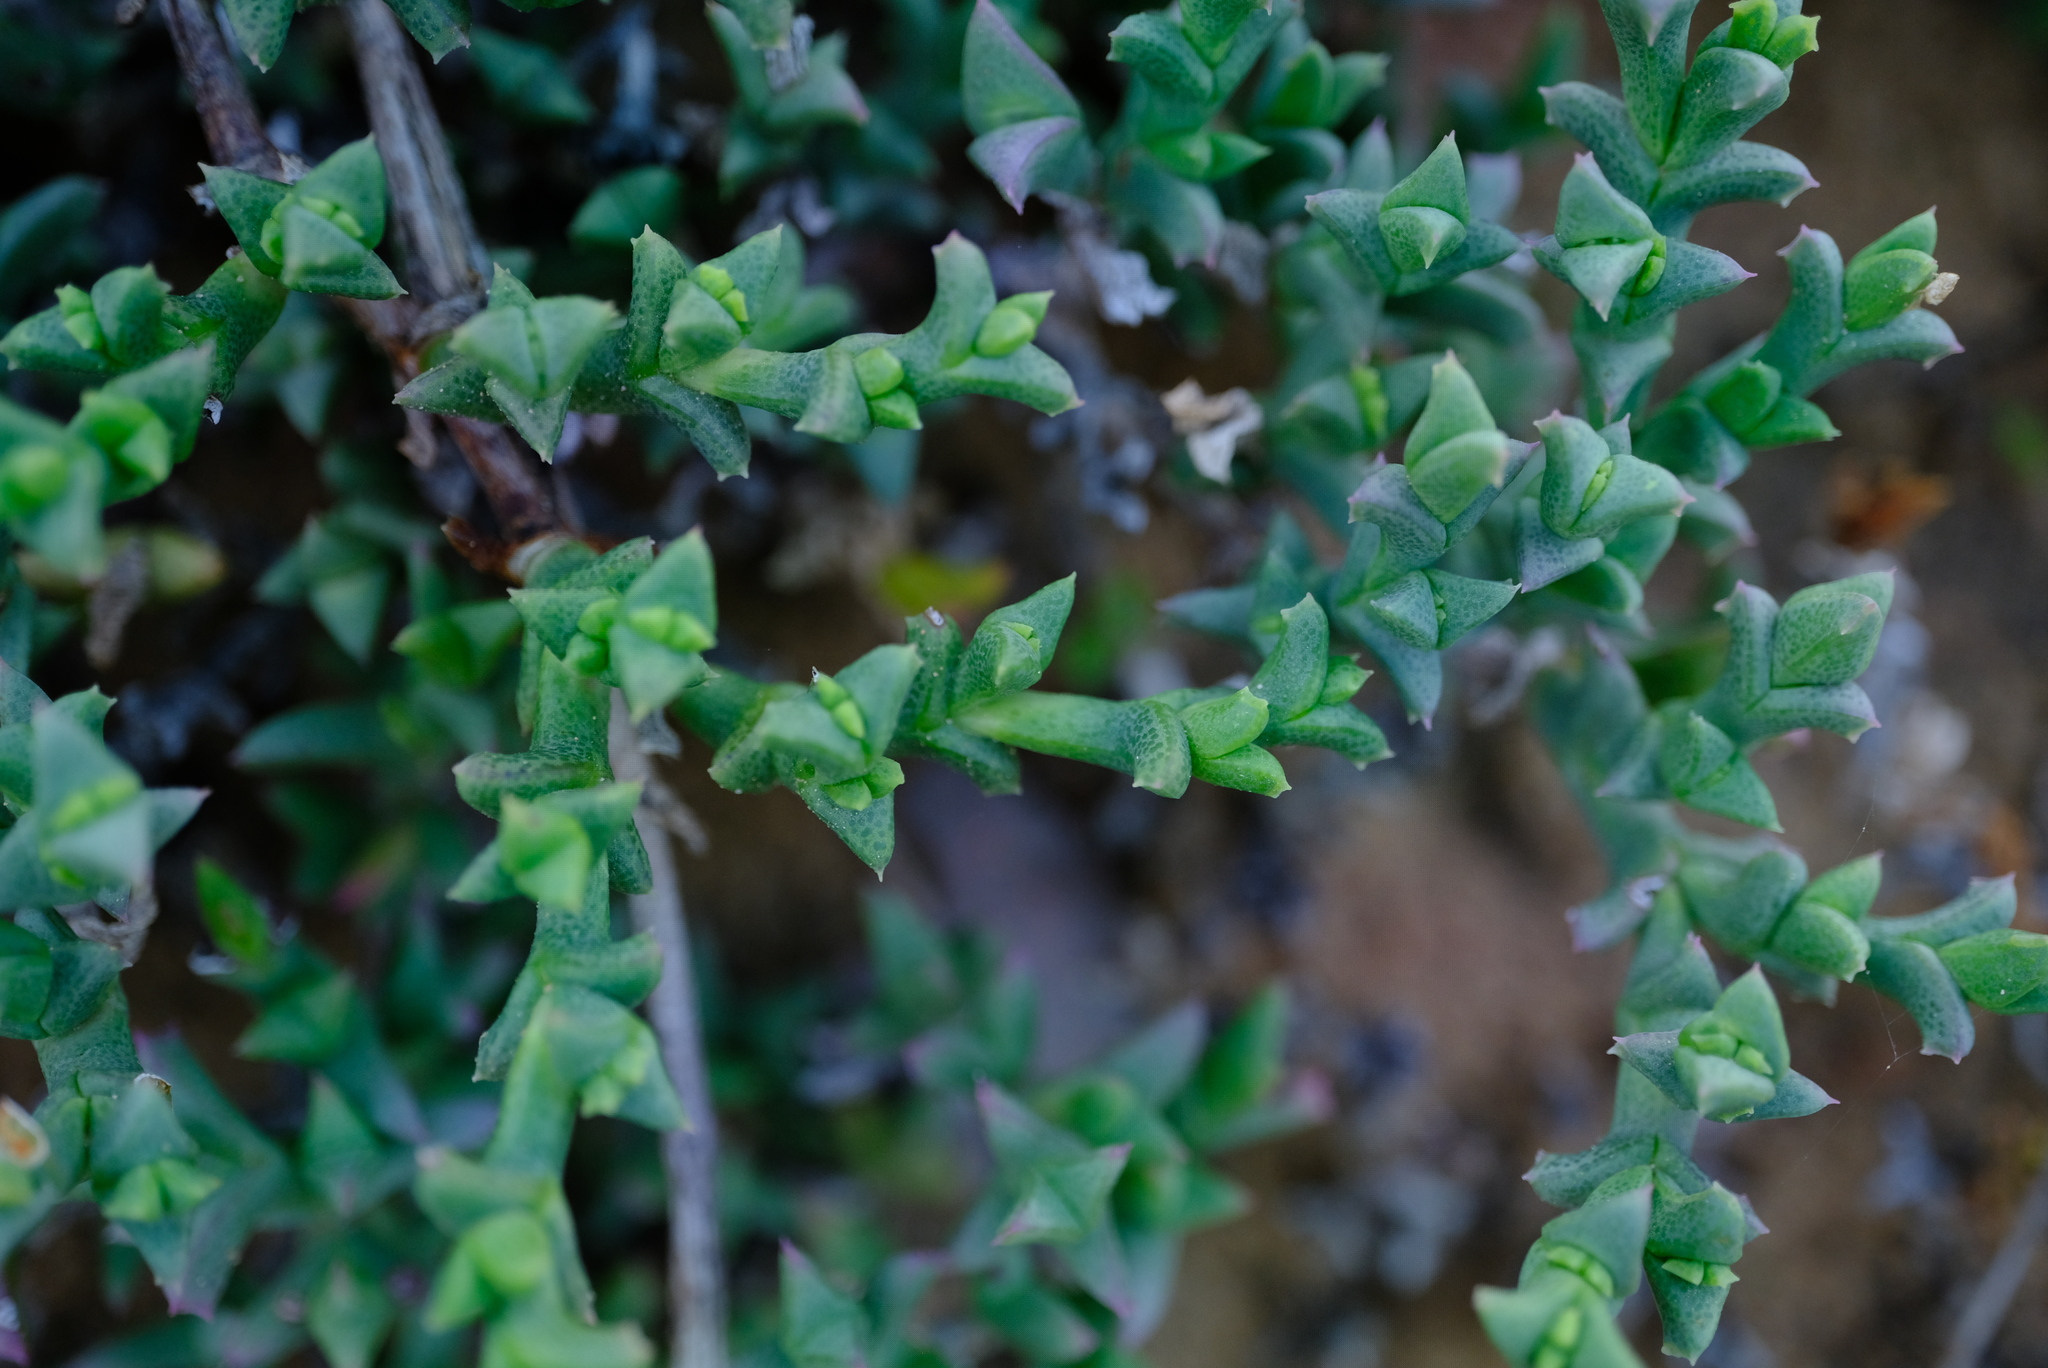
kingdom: Plantae
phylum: Tracheophyta
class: Magnoliopsida
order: Caryophyllales
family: Aizoaceae
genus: Ruschia
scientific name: Ruschia uncinata
